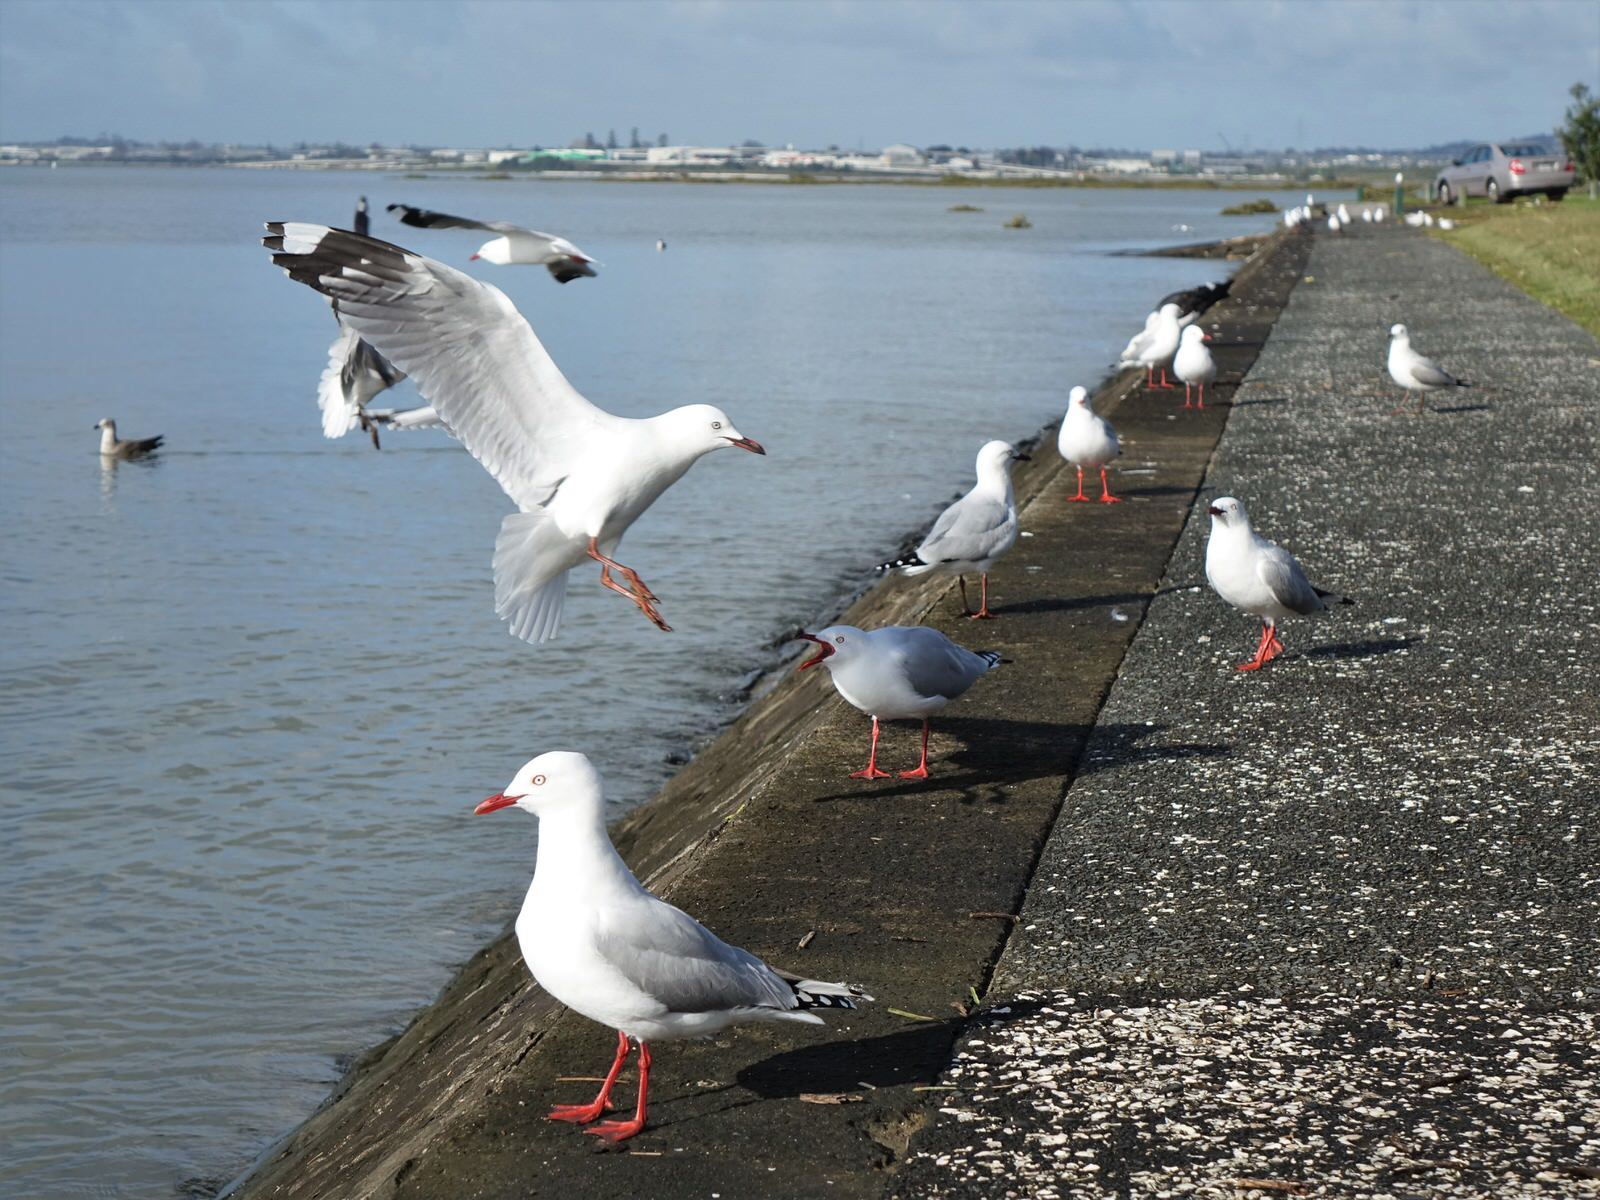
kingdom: Animalia
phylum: Chordata
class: Aves
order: Charadriiformes
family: Laridae
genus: Chroicocephalus
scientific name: Chroicocephalus novaehollandiae
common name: Silver gull
